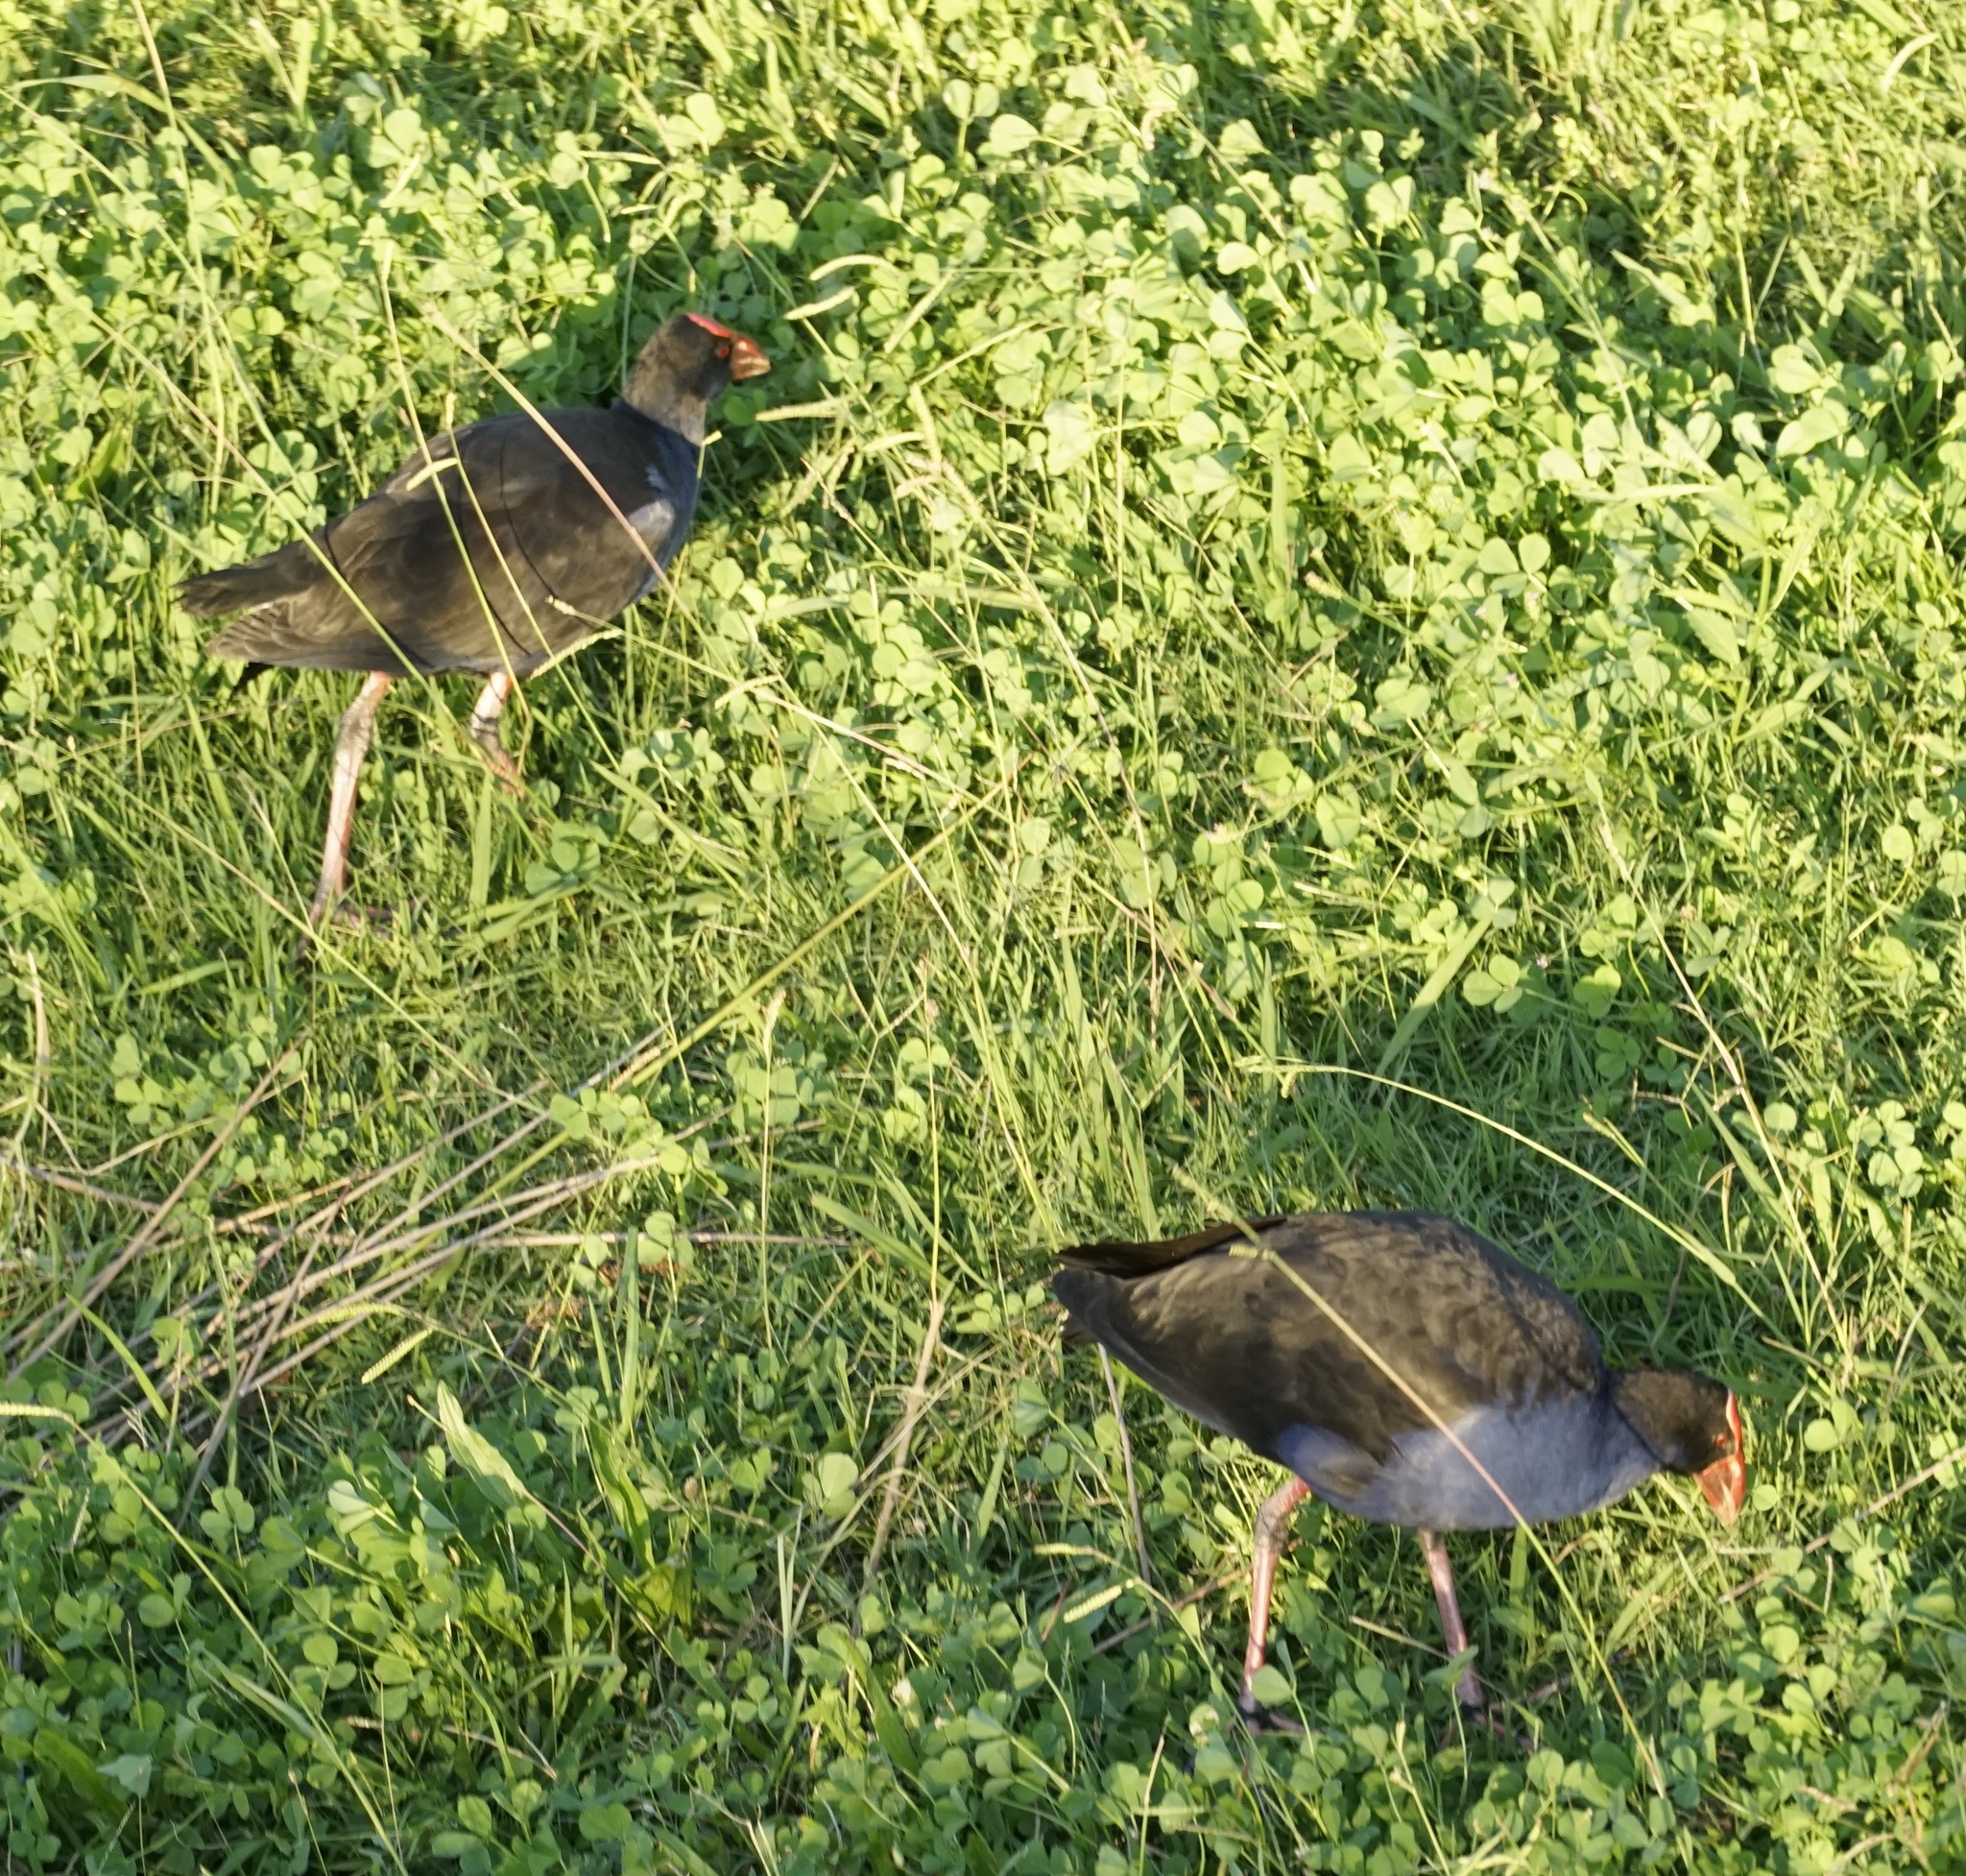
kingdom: Animalia
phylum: Chordata
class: Aves
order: Gruiformes
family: Rallidae
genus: Porphyrio
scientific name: Porphyrio melanotus
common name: Australasian swamphen
